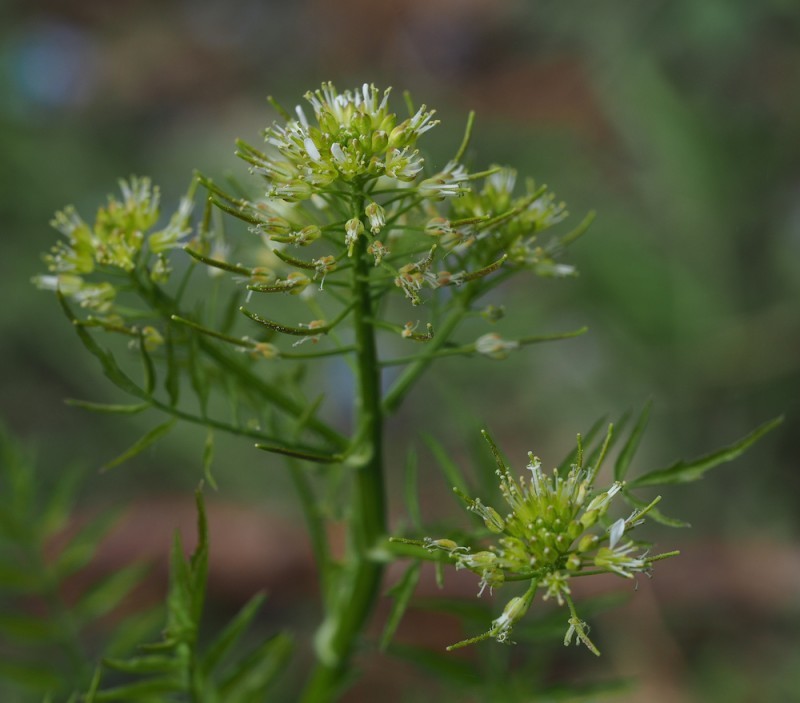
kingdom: Plantae
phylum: Tracheophyta
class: Magnoliopsida
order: Brassicales
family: Brassicaceae
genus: Cardamine
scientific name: Cardamine impatiens
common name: Narrow-leaved bitter-cress
